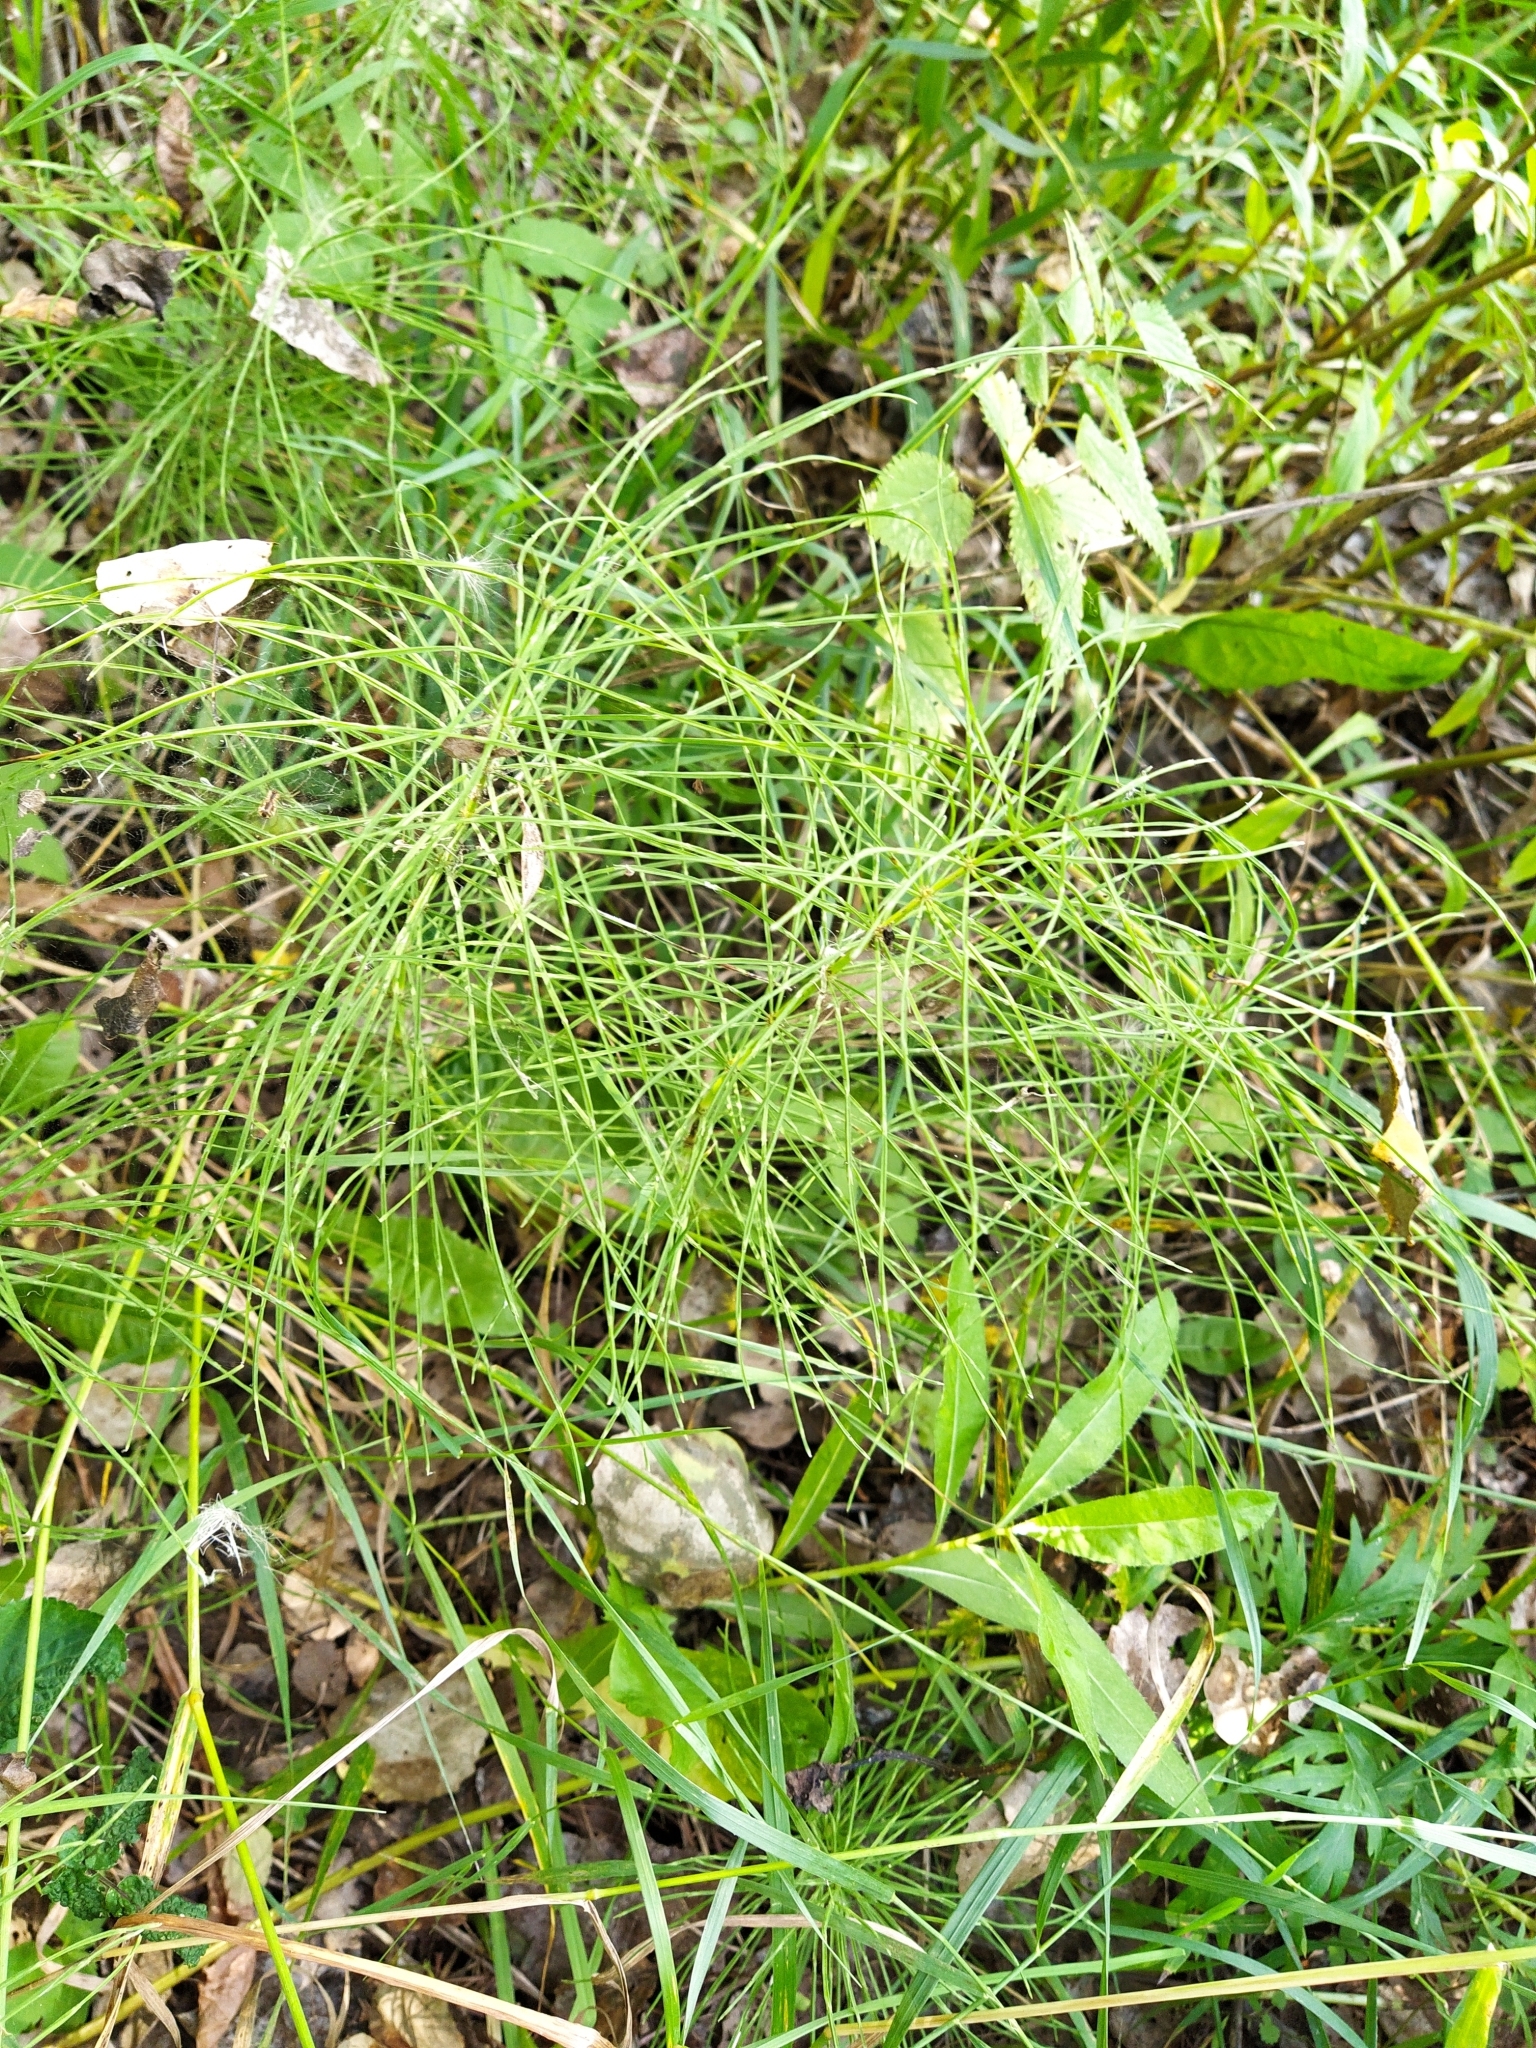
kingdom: Plantae
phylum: Tracheophyta
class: Polypodiopsida
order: Equisetales
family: Equisetaceae
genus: Equisetum
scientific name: Equisetum pratense
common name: Meadow horsetail
